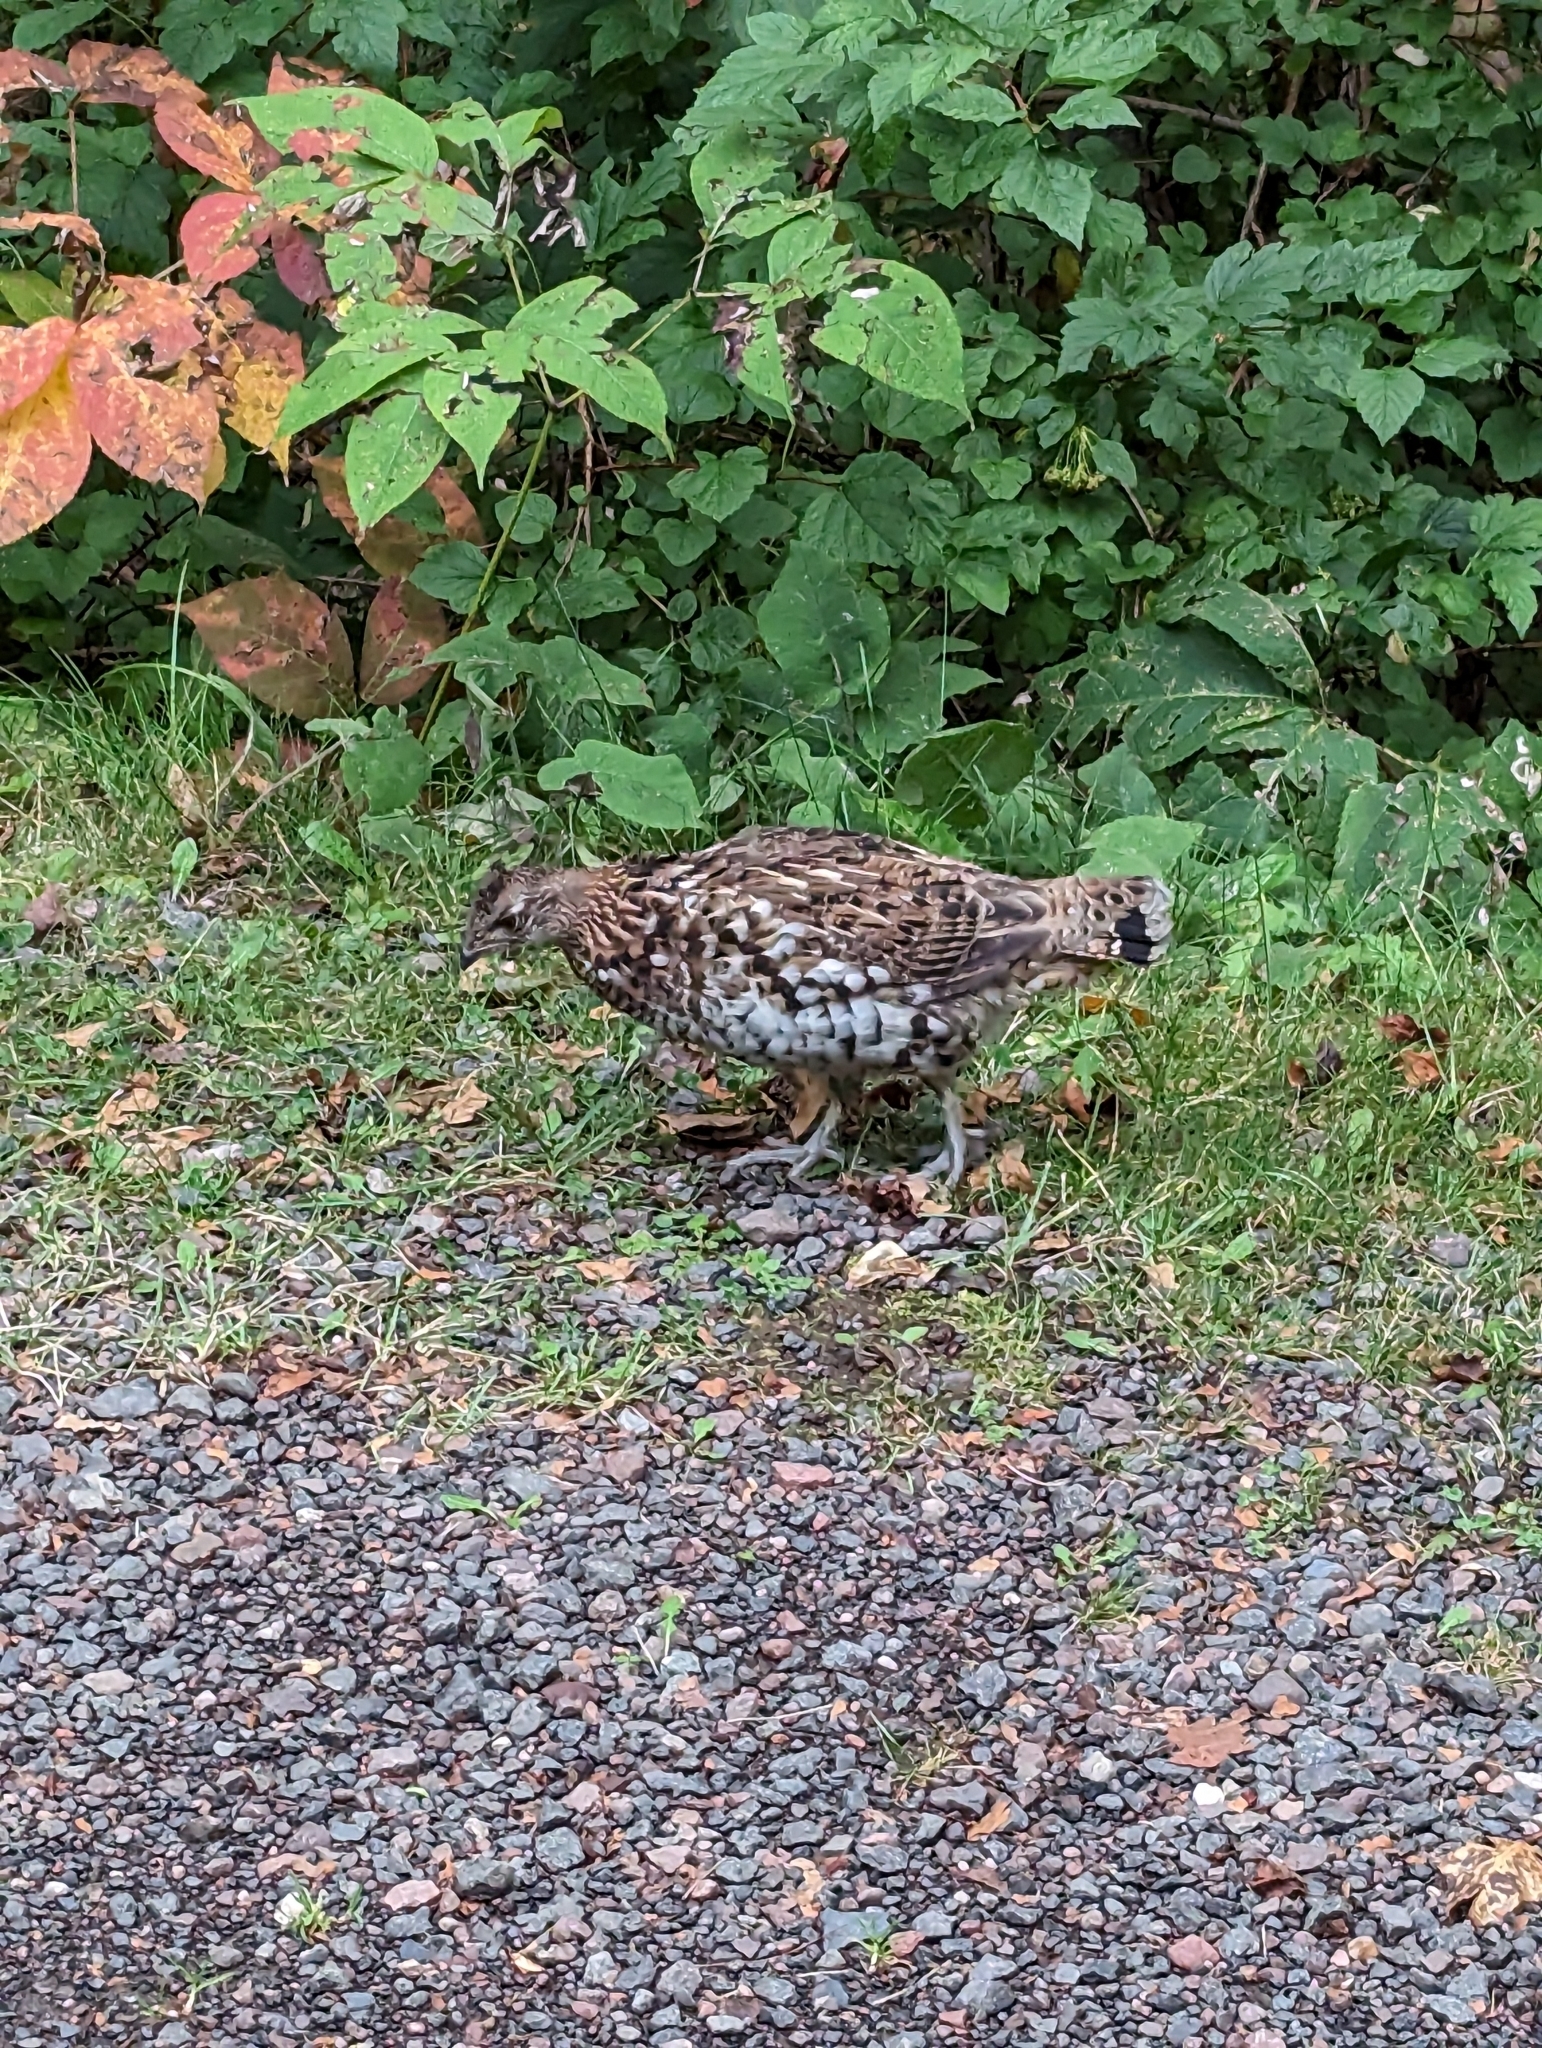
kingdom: Animalia
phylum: Chordata
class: Aves
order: Galliformes
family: Phasianidae
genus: Bonasa
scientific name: Bonasa umbellus
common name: Ruffed grouse
